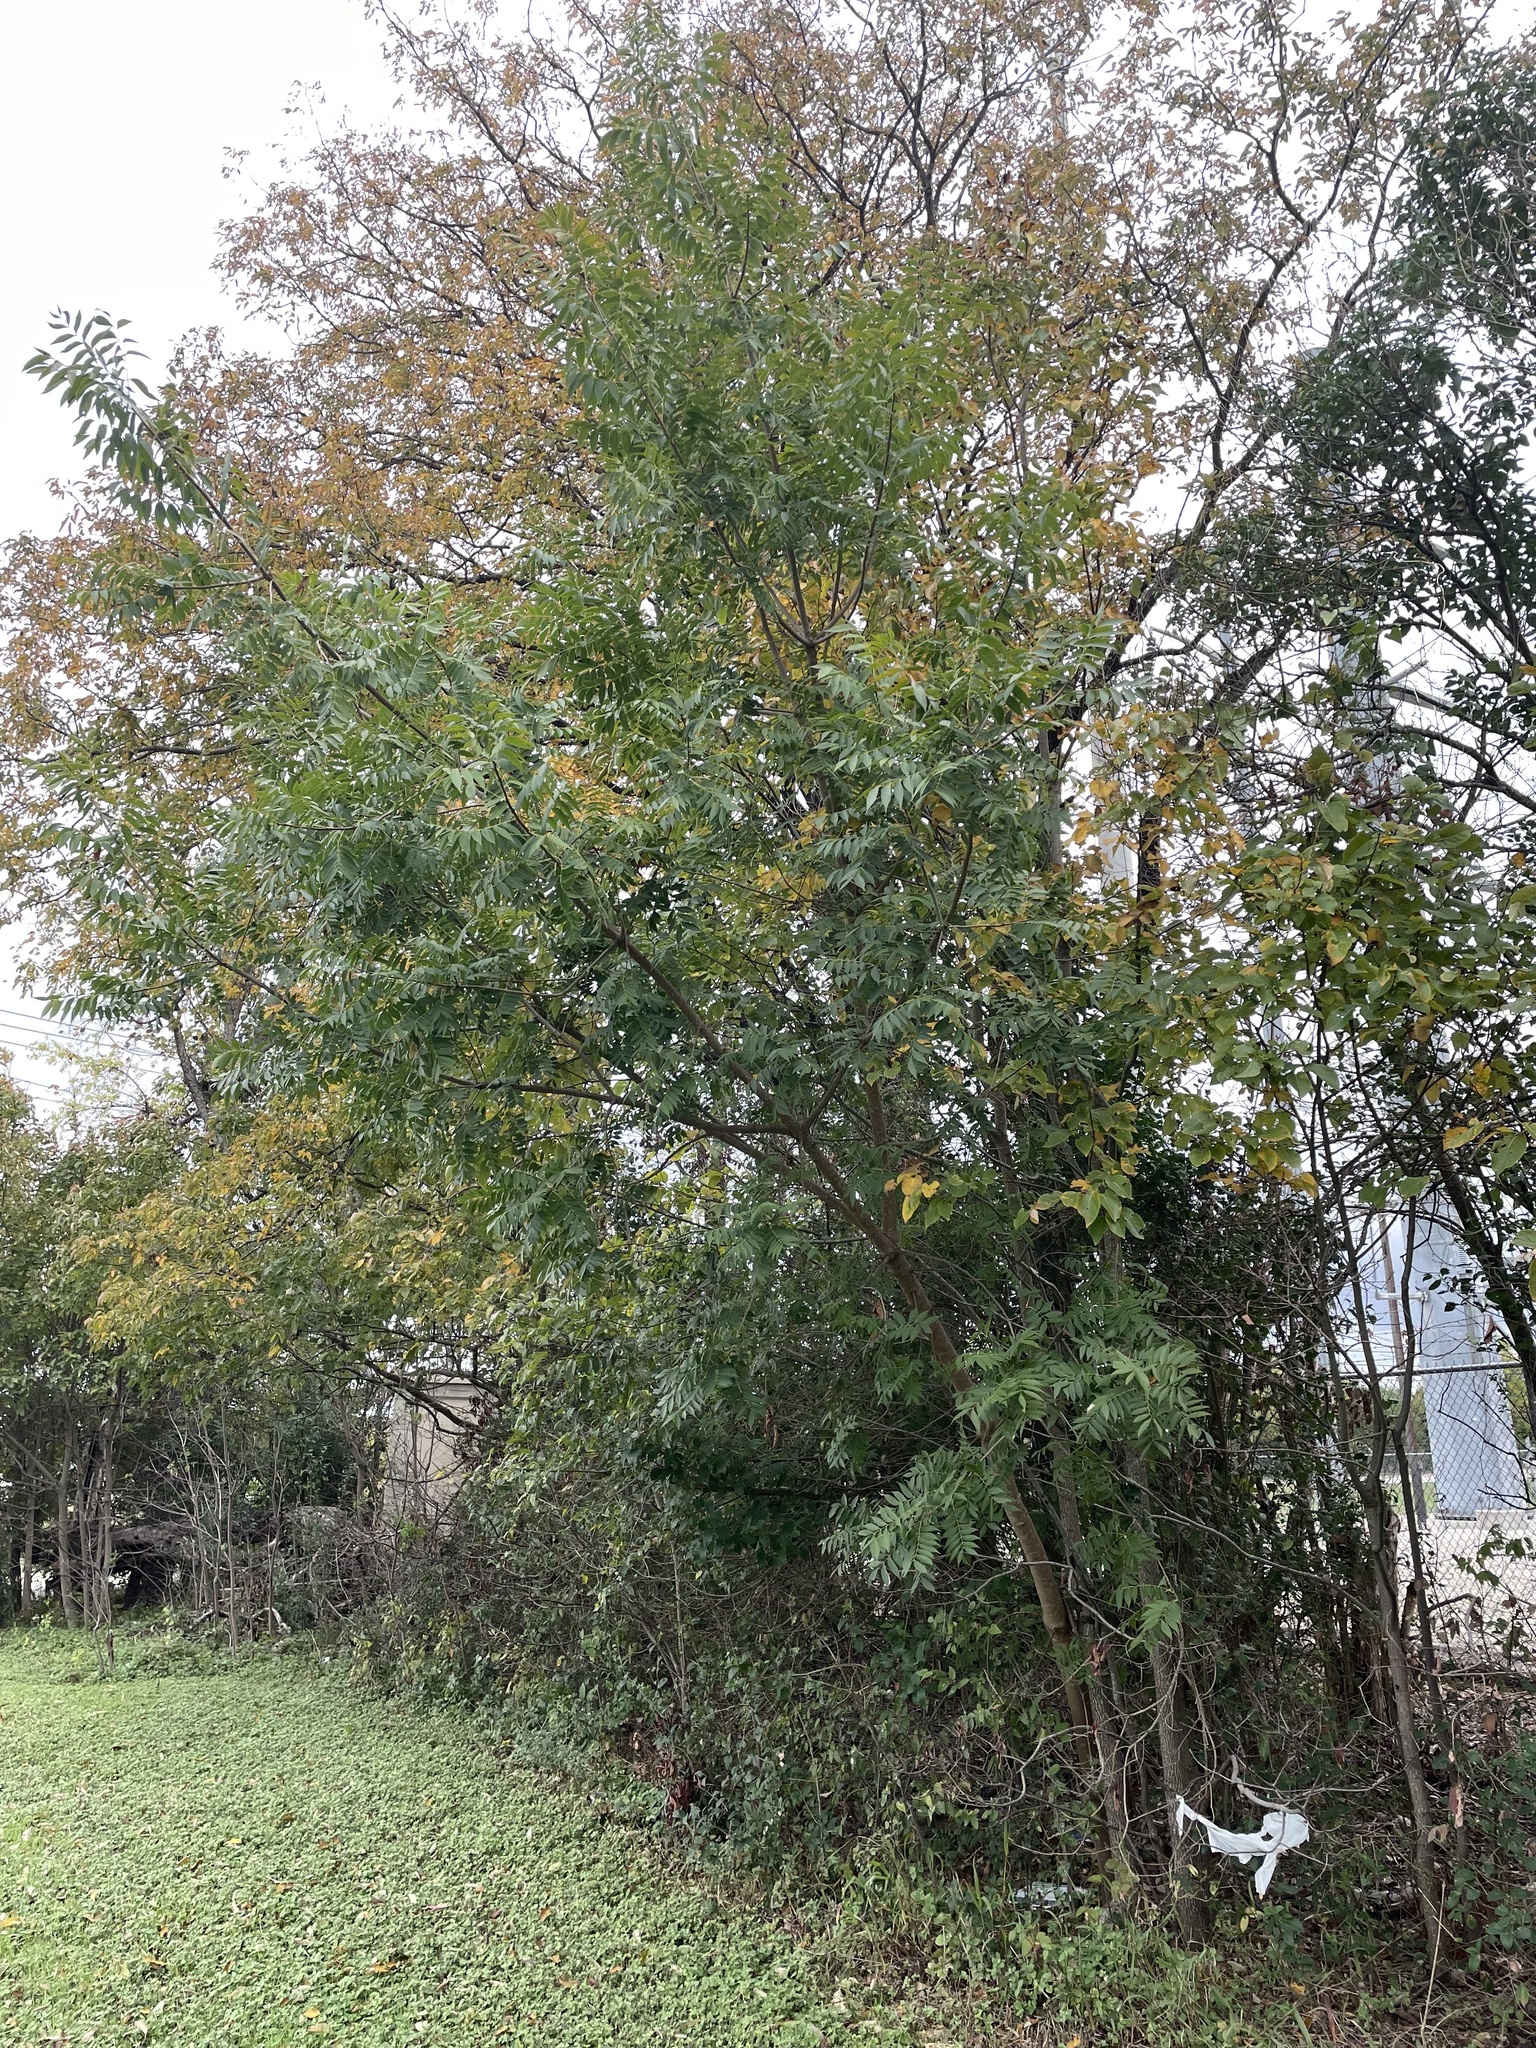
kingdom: Plantae
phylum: Tracheophyta
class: Magnoliopsida
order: Sapindales
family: Anacardiaceae
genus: Pistacia
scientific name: Pistacia chinensis
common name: Chinese pistache
